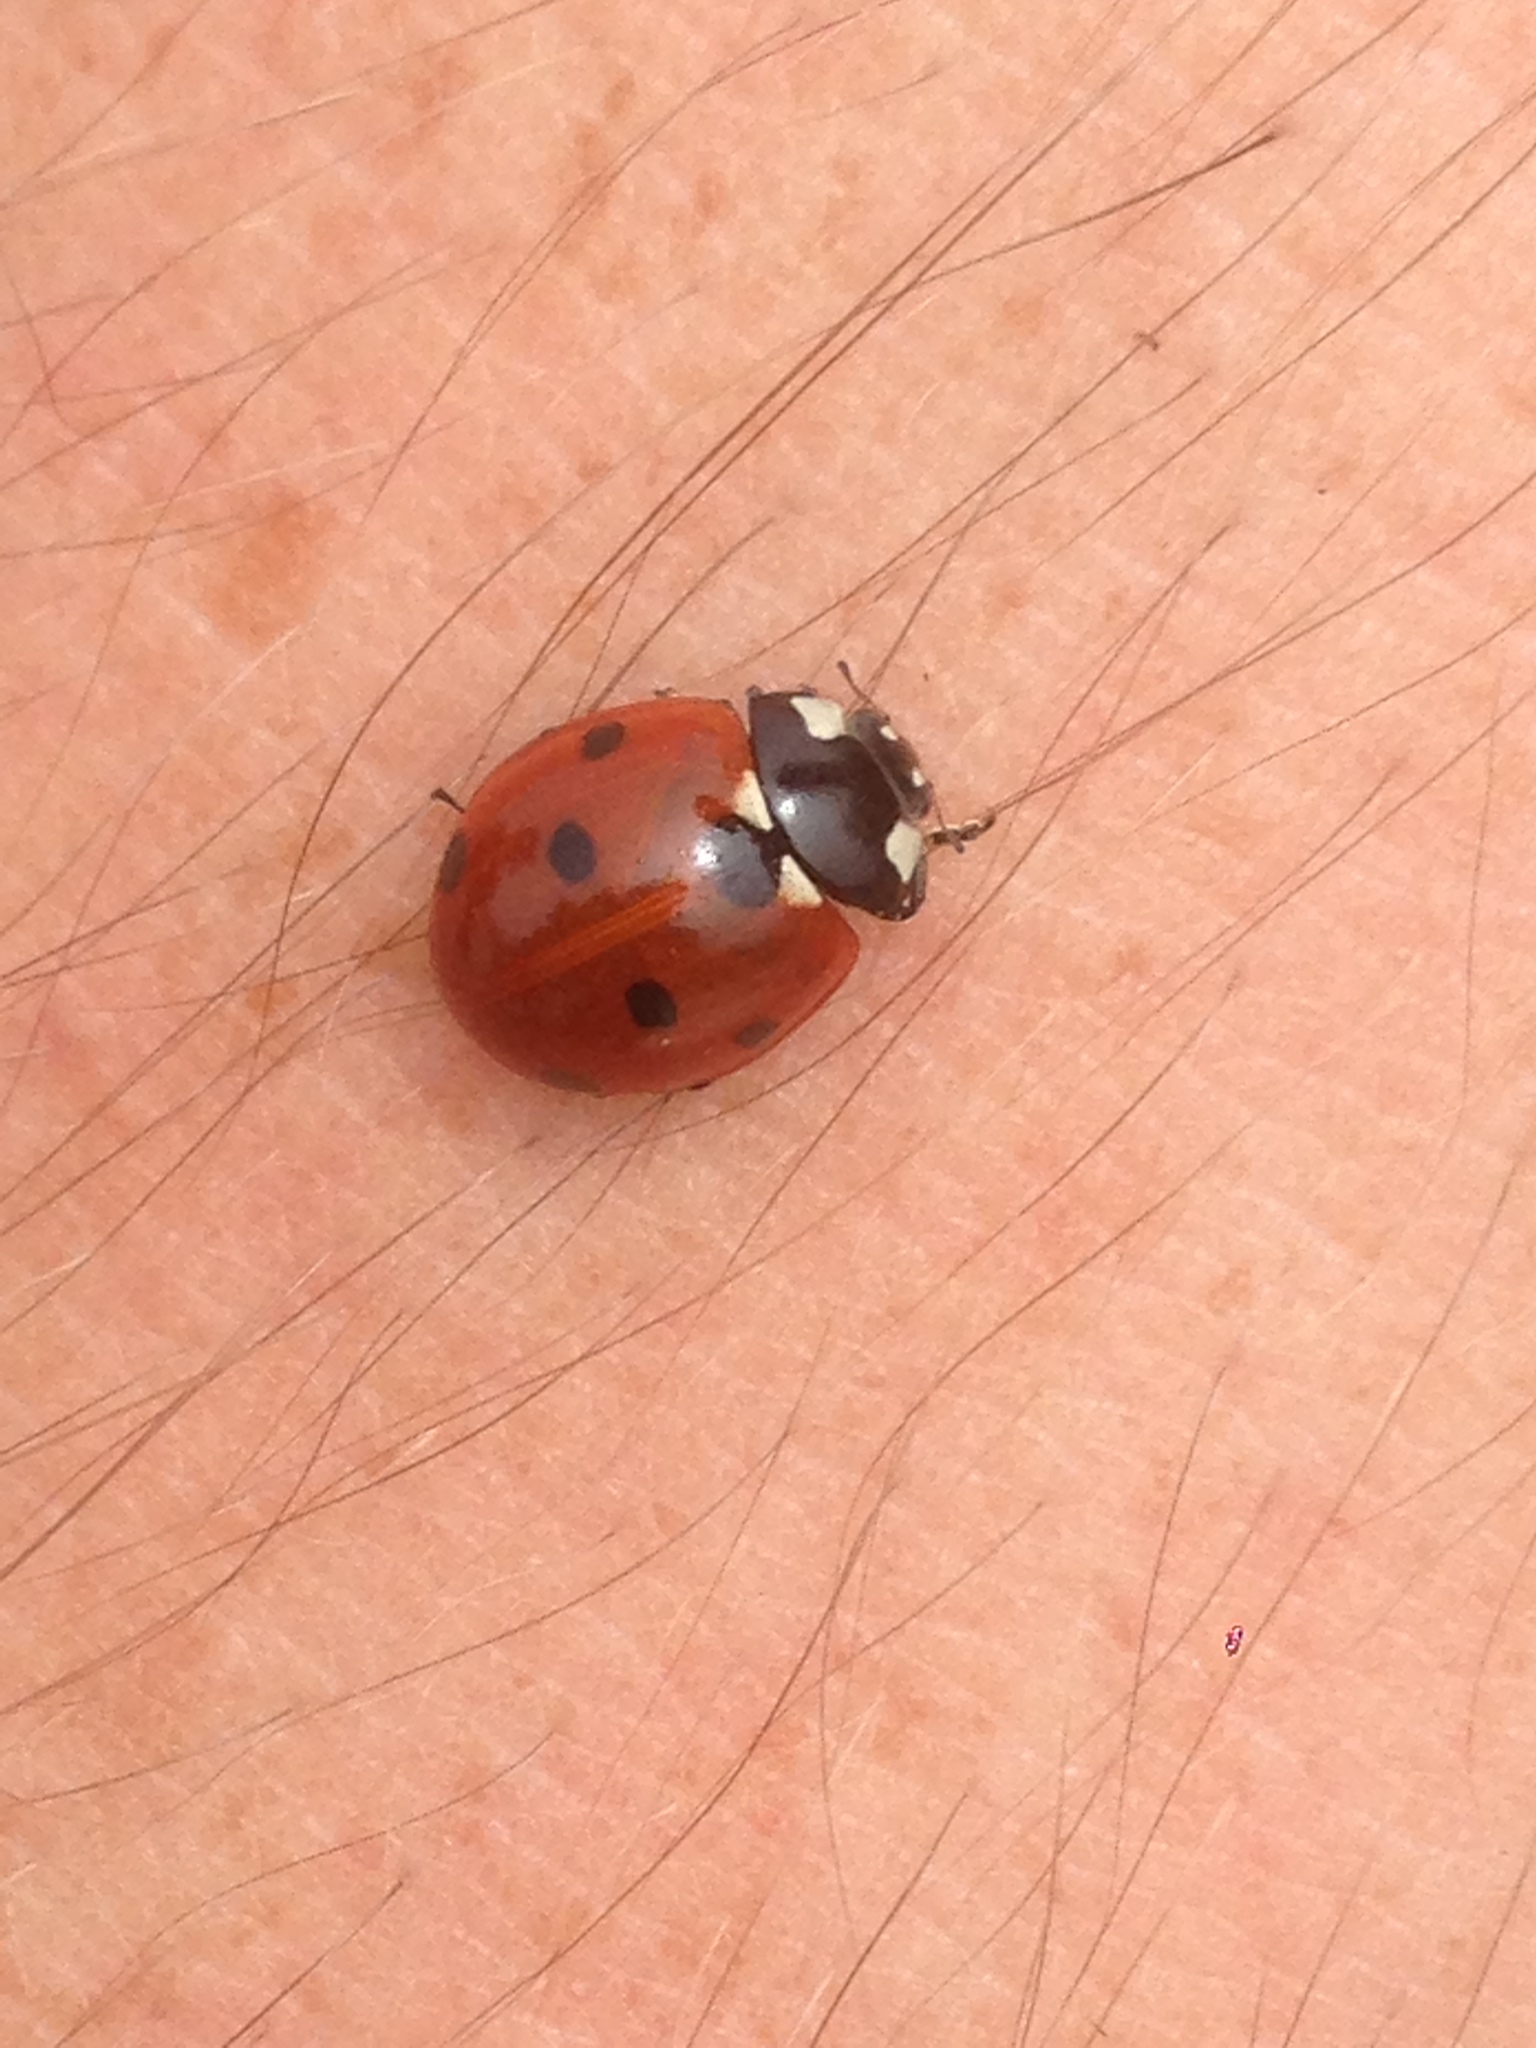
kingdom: Animalia
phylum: Arthropoda
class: Insecta
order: Coleoptera
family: Coccinellidae
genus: Coccinella
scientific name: Coccinella septempunctata
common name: Sevenspotted lady beetle
